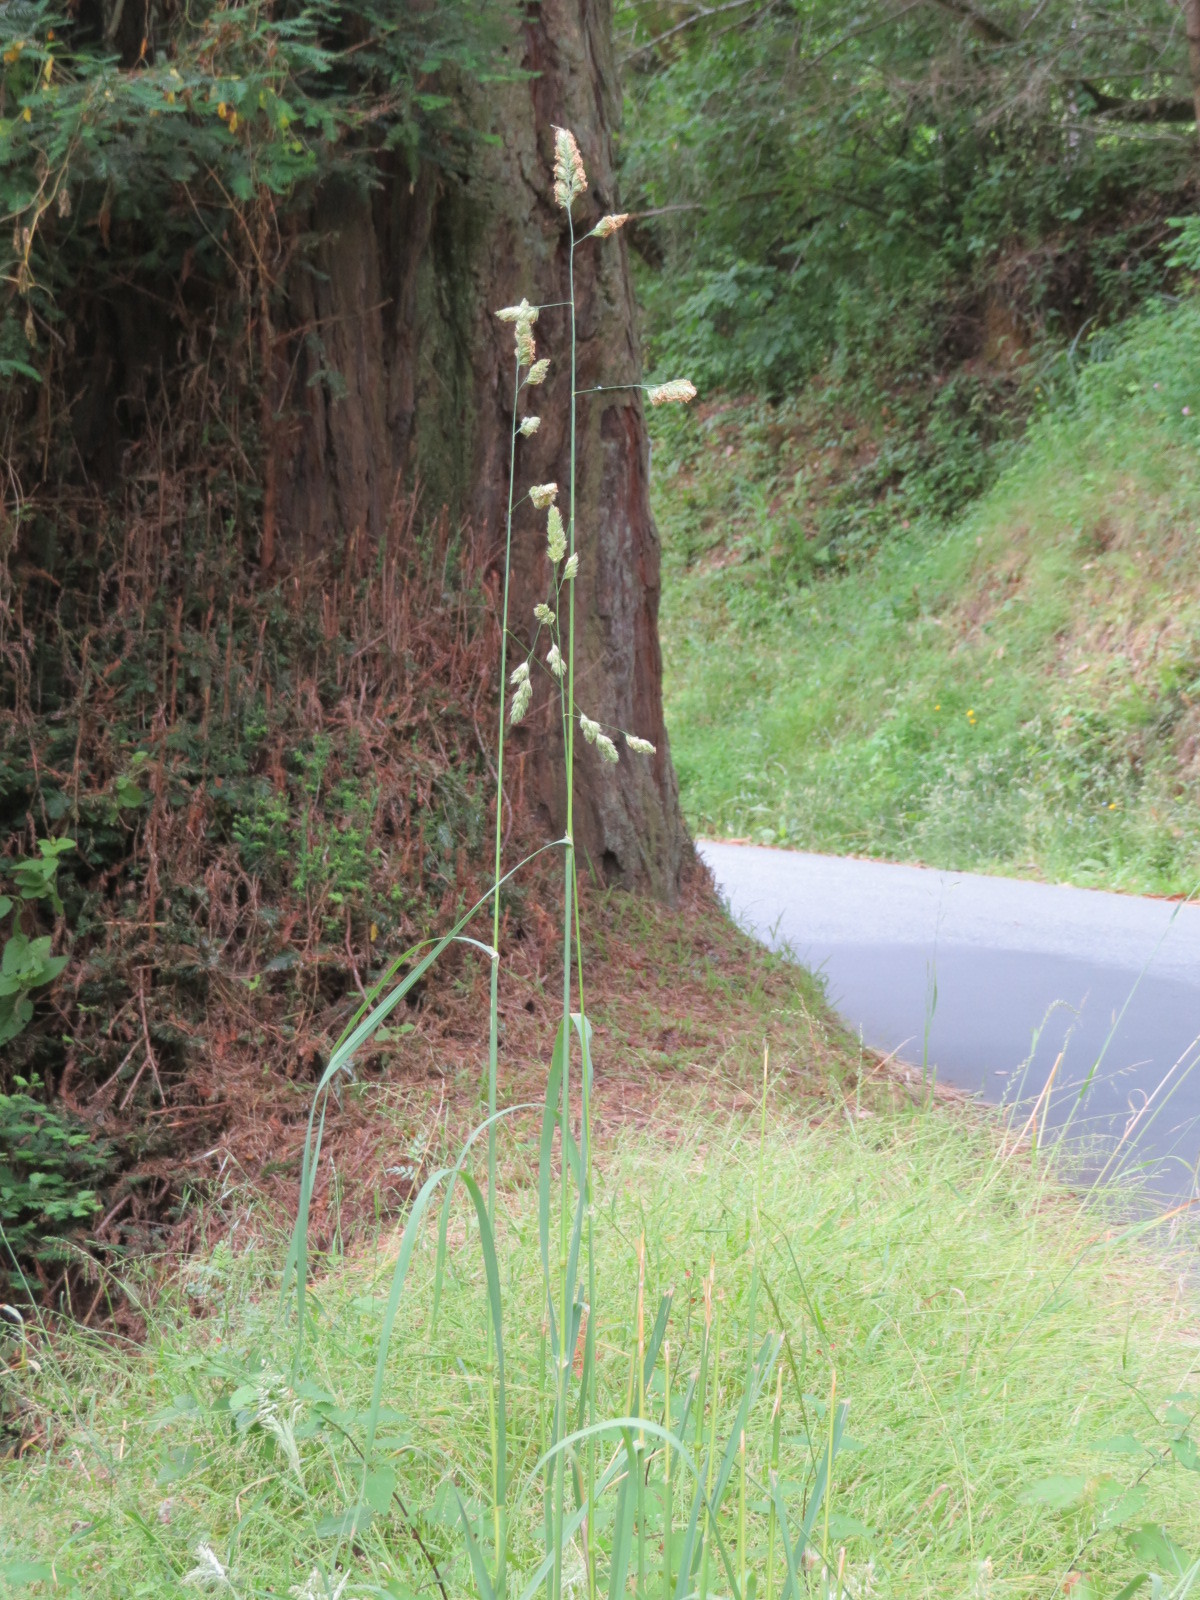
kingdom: Plantae
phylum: Tracheophyta
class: Liliopsida
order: Poales
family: Poaceae
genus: Dactylis
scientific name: Dactylis glomerata
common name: Orchardgrass
